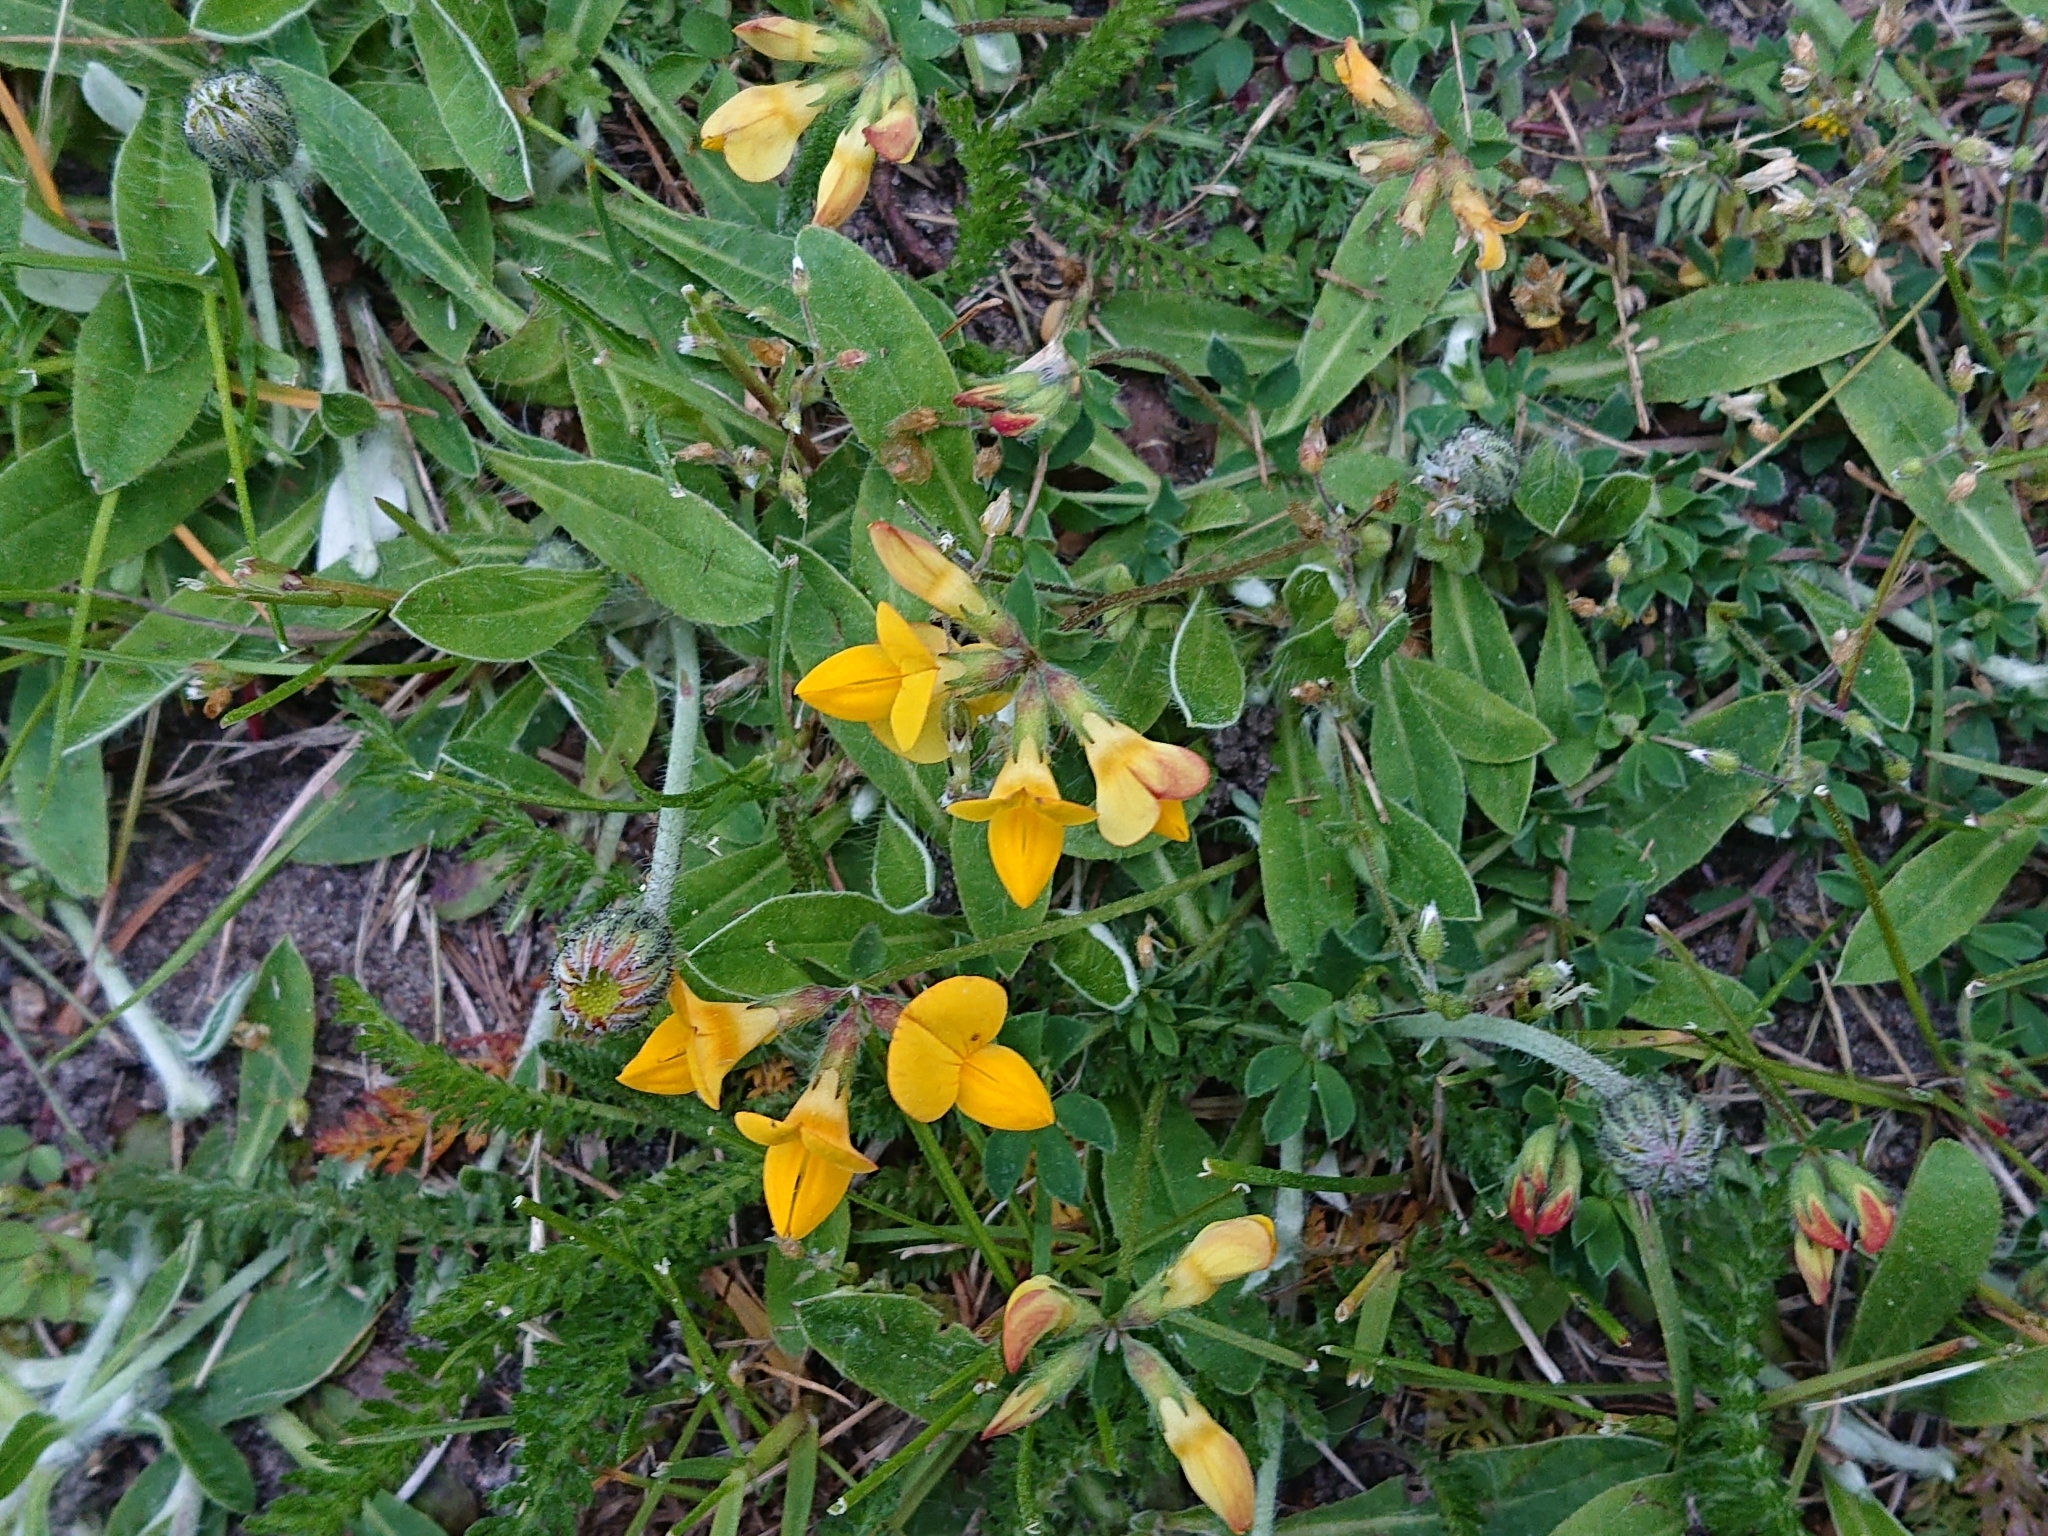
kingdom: Plantae
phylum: Tracheophyta
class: Magnoliopsida
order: Fabales
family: Fabaceae
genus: Lotus
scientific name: Lotus corniculatus
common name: Common bird's-foot-trefoil
